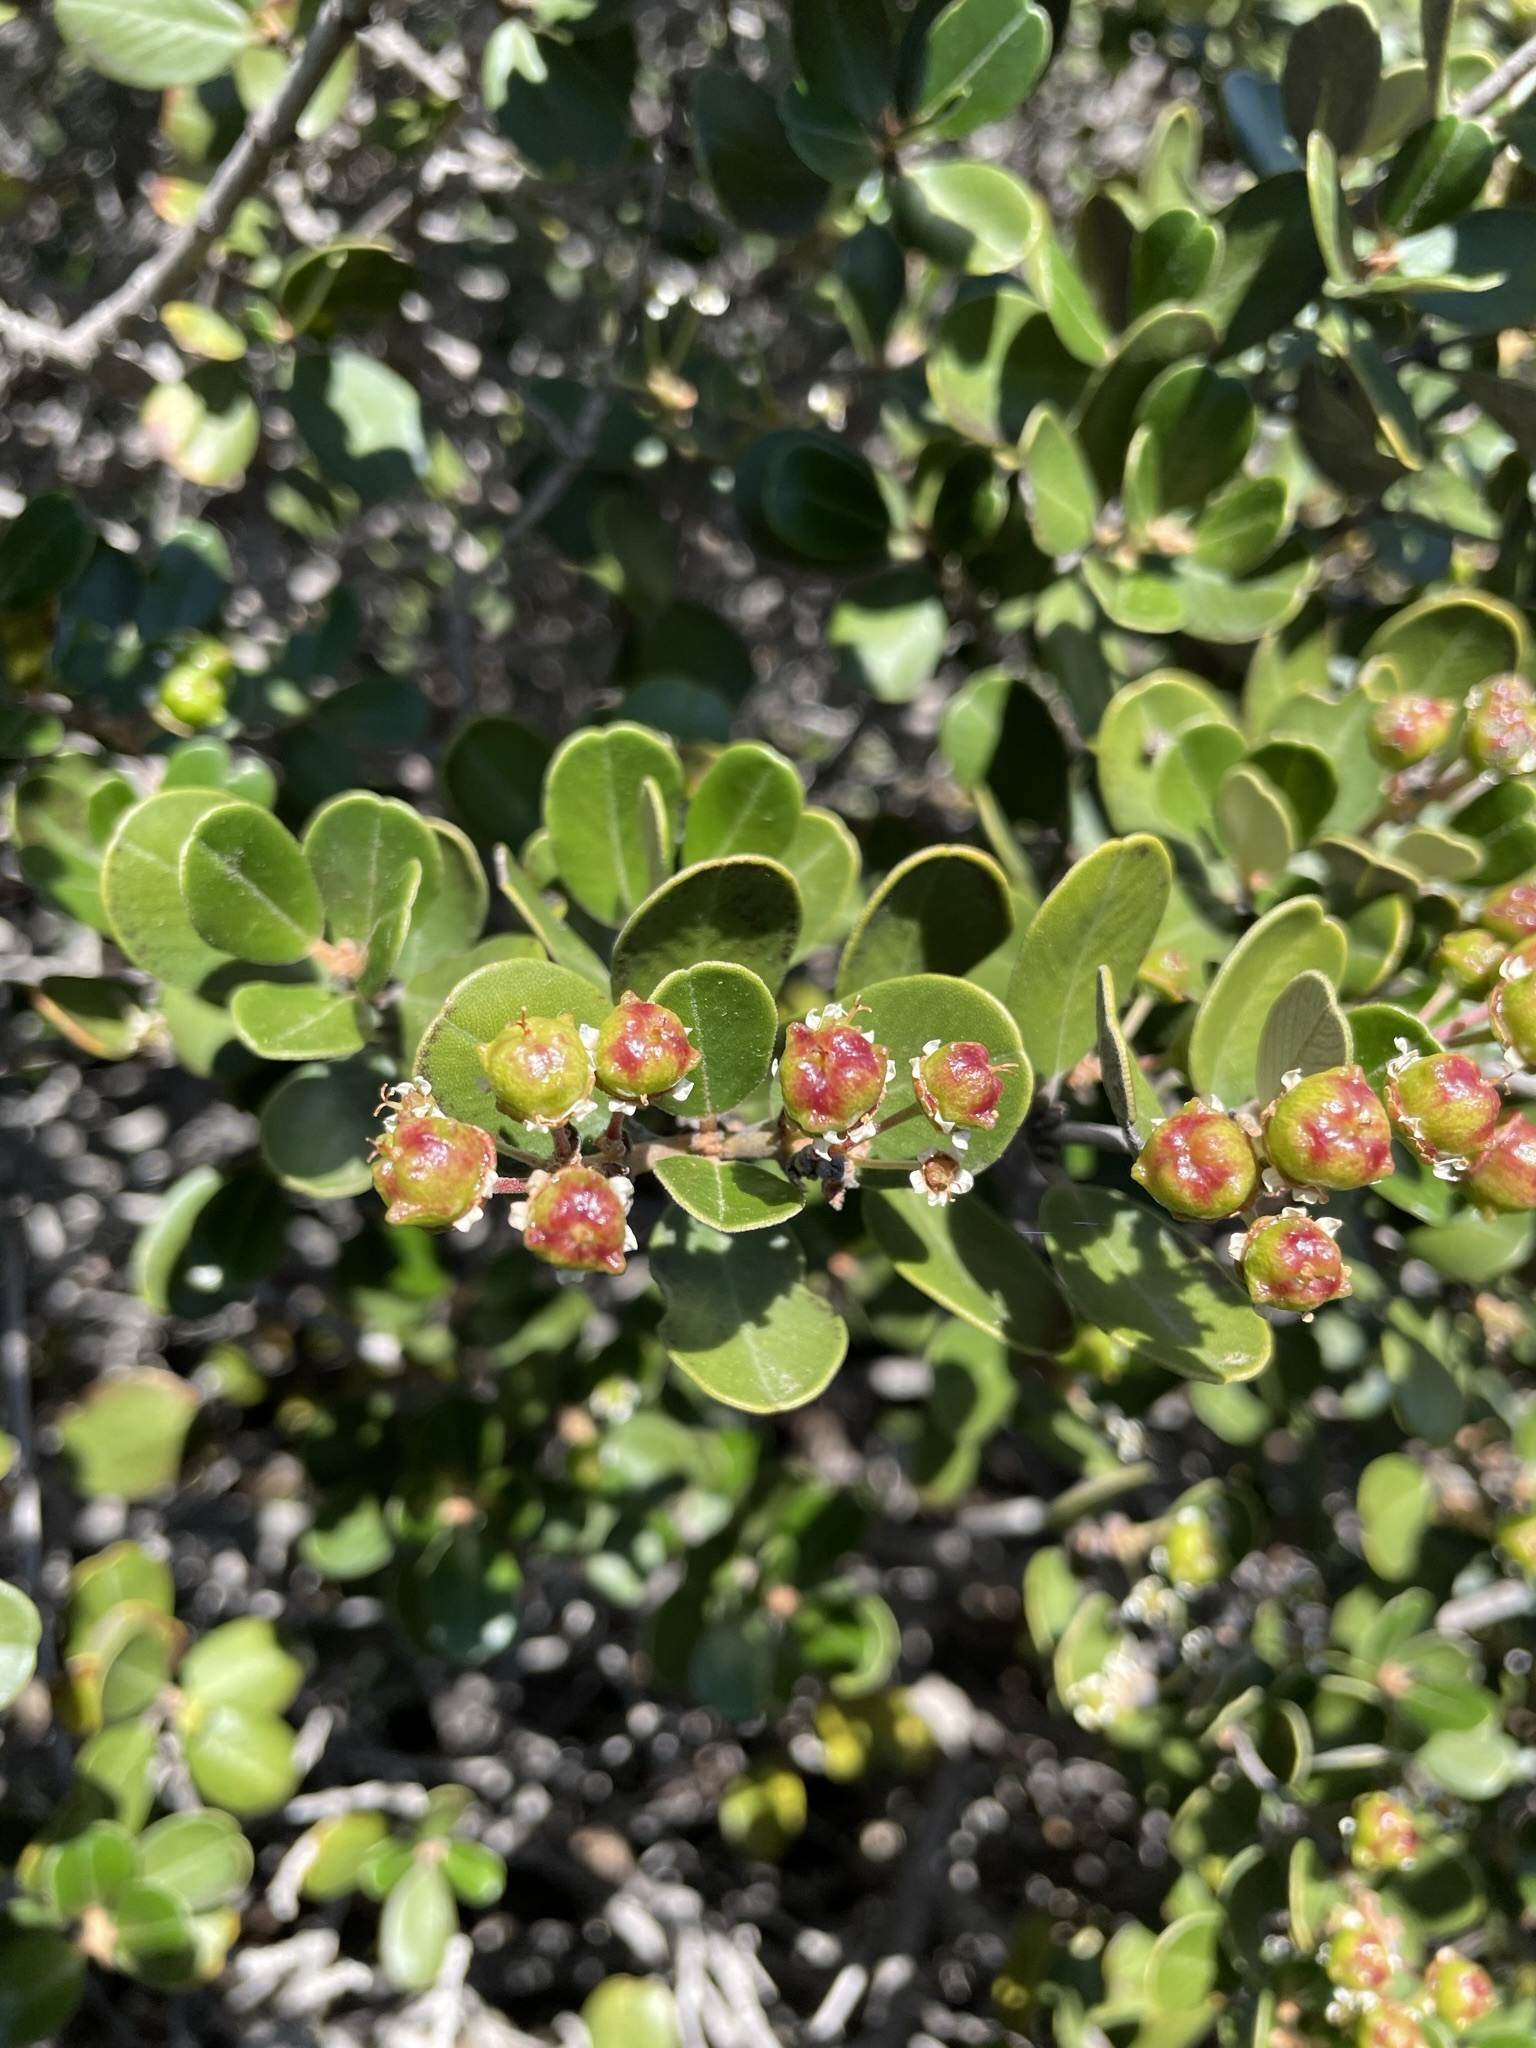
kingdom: Plantae
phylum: Tracheophyta
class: Magnoliopsida
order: Rosales
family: Rhamnaceae
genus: Ceanothus
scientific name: Ceanothus megacarpus
